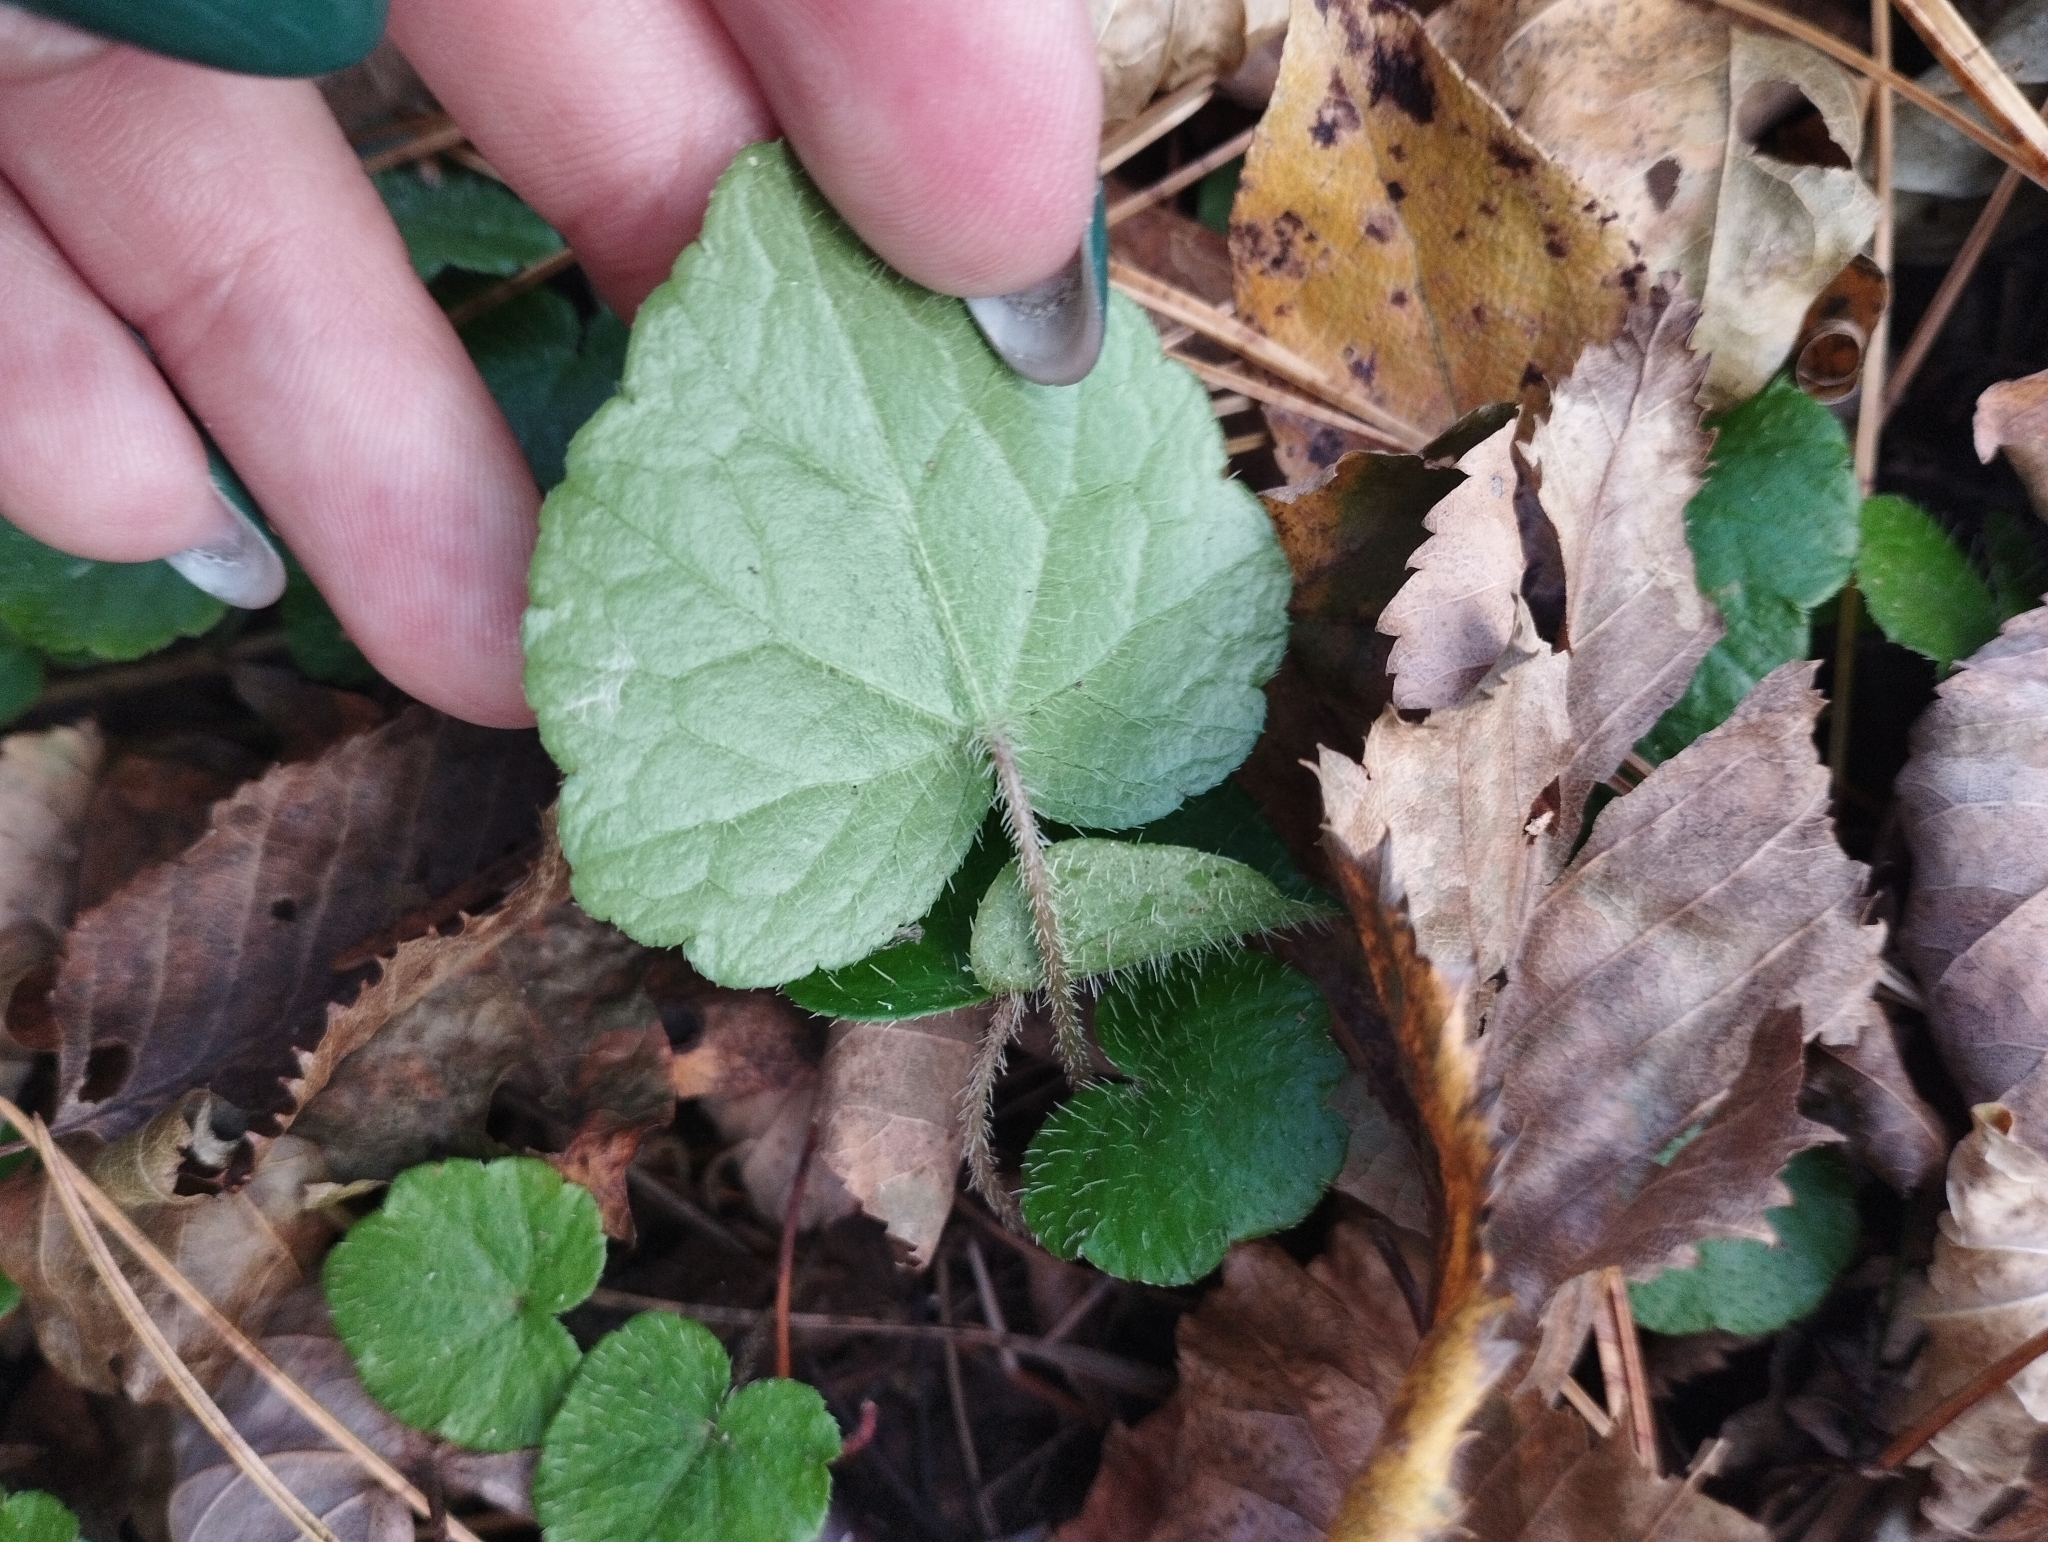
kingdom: Plantae
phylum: Tracheophyta
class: Magnoliopsida
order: Saxifragales
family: Saxifragaceae
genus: Mitella
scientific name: Mitella nuda
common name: Bare-stemmed bishop's-cap
